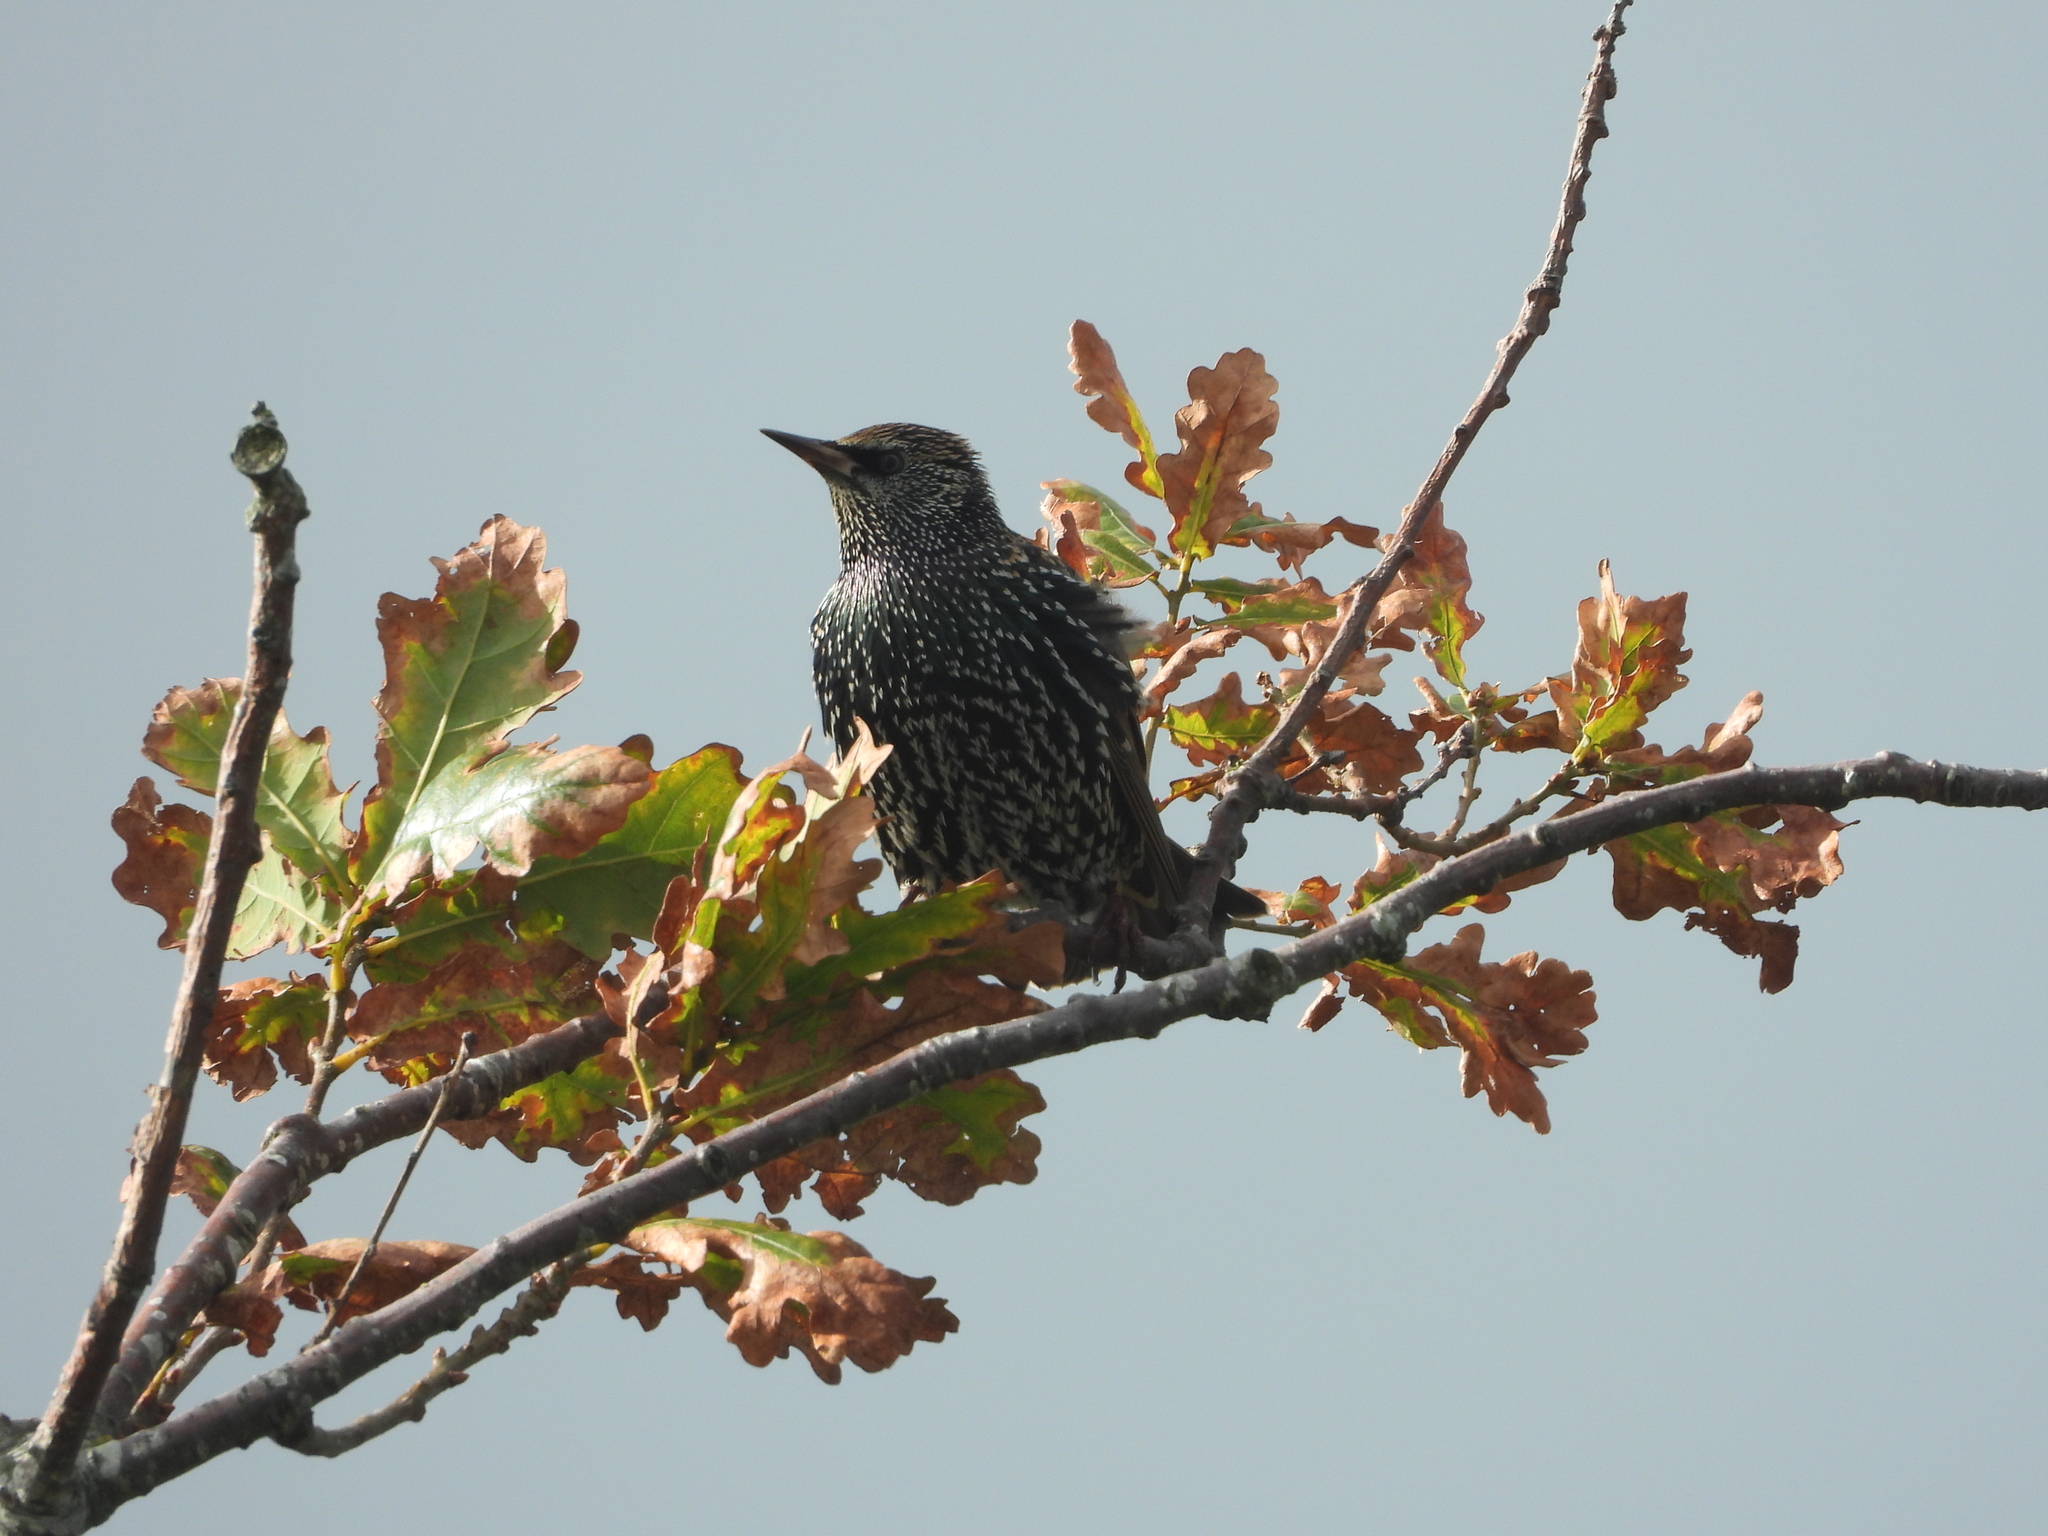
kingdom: Animalia
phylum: Chordata
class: Aves
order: Passeriformes
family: Sturnidae
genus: Sturnus
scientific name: Sturnus vulgaris
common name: Common starling
